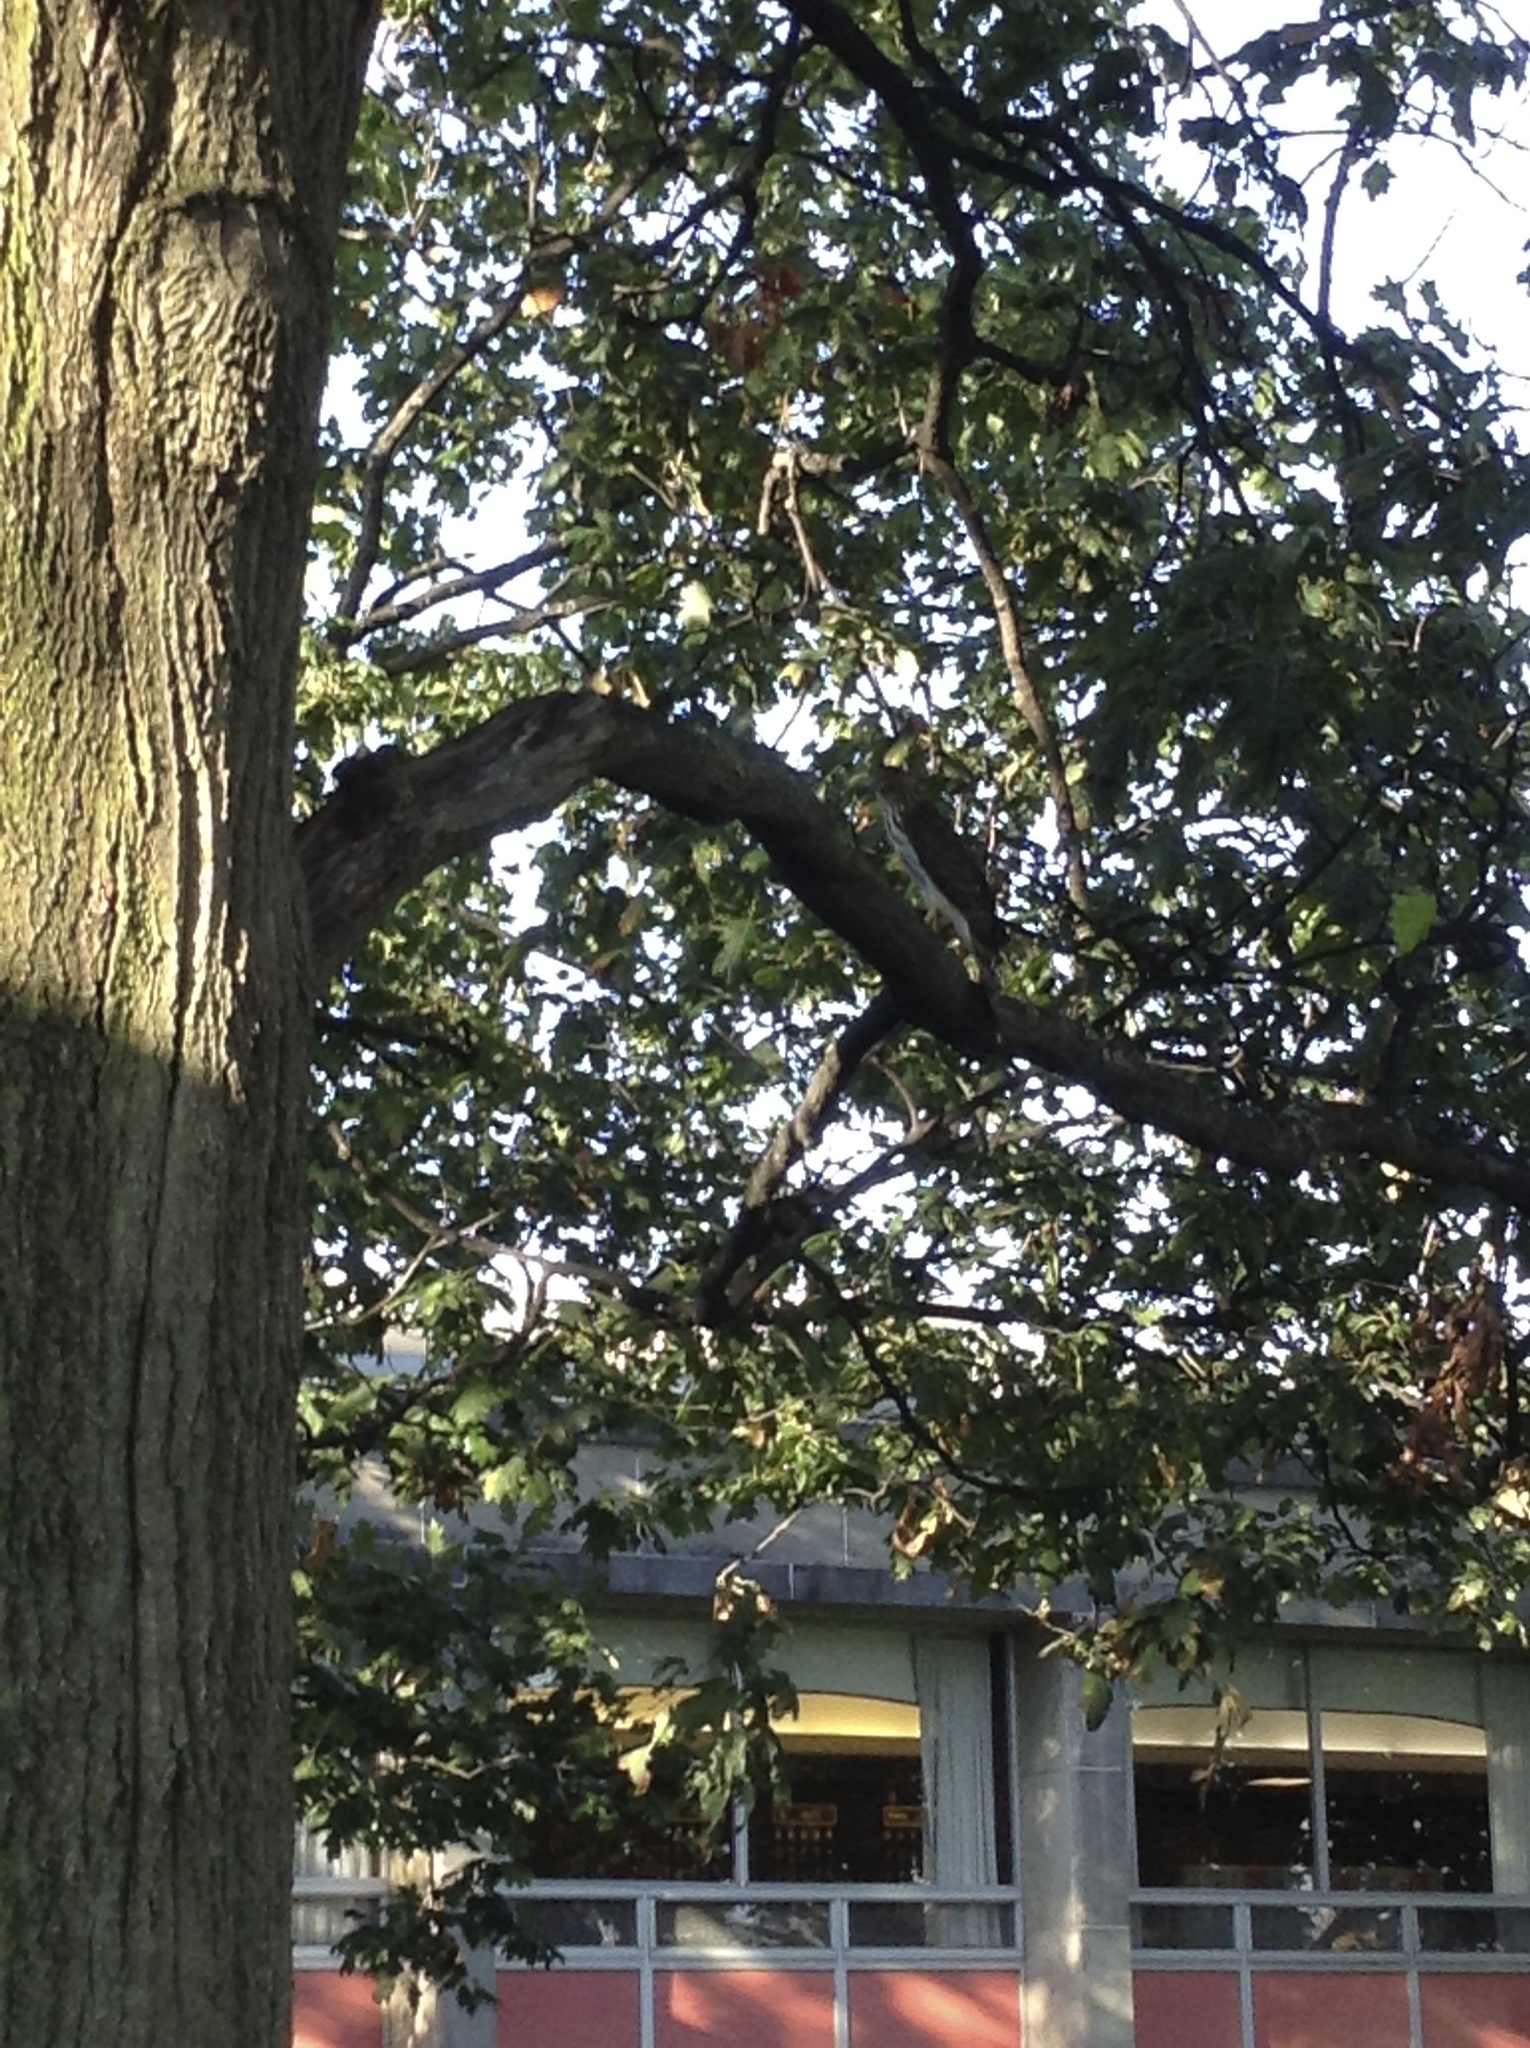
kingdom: Animalia
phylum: Chordata
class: Aves
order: Accipitriformes
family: Accipitridae
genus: Accipiter
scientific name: Accipiter cooperii
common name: Cooper's hawk
